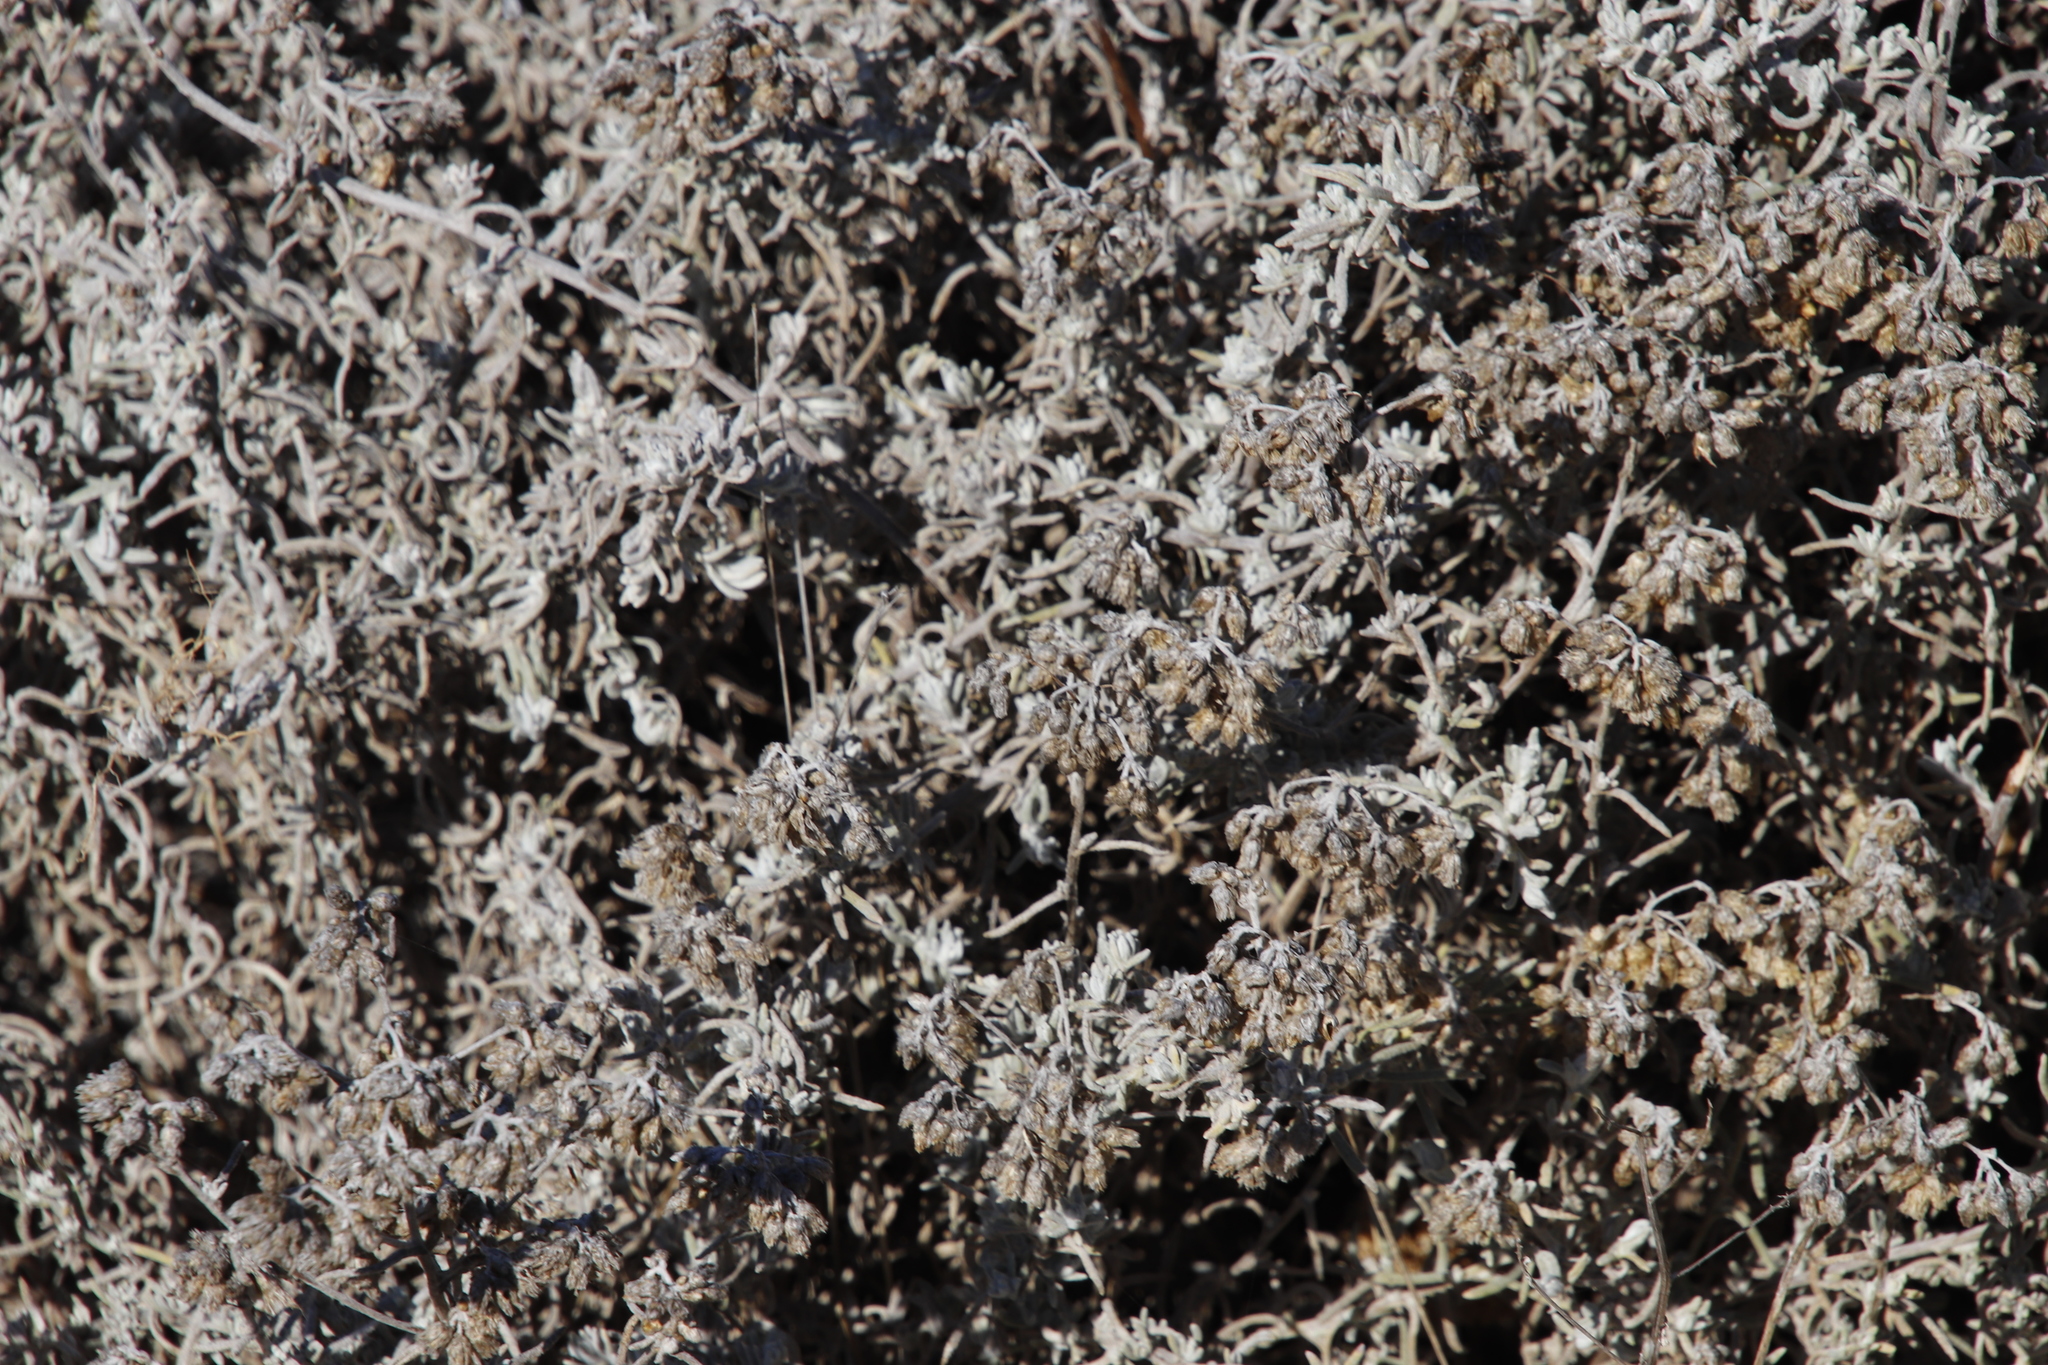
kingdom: Plantae
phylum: Tracheophyta
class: Magnoliopsida
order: Asterales
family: Asteraceae
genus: Helichrysum
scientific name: Helichrysum revolutum
